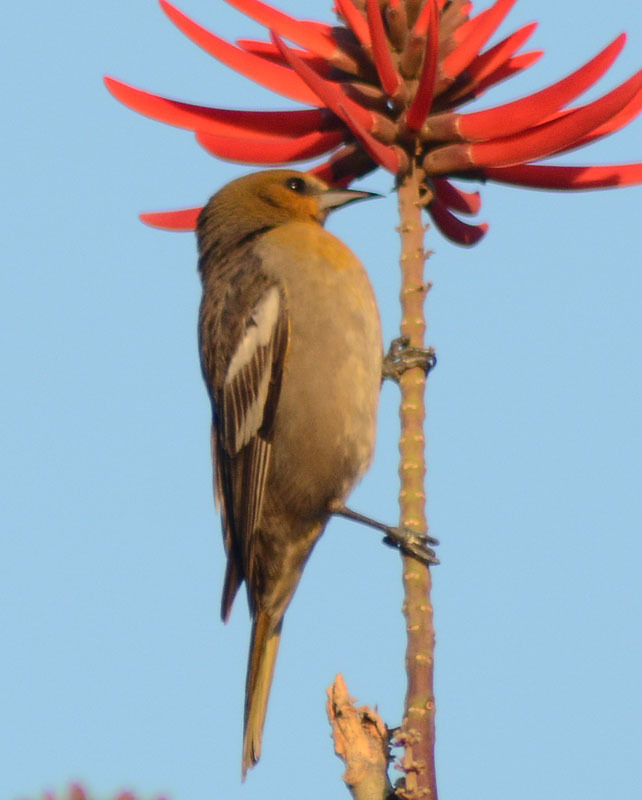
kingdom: Animalia
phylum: Chordata
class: Aves
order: Passeriformes
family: Icteridae
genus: Icterus
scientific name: Icterus abeillei
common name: Black-backed oriole
